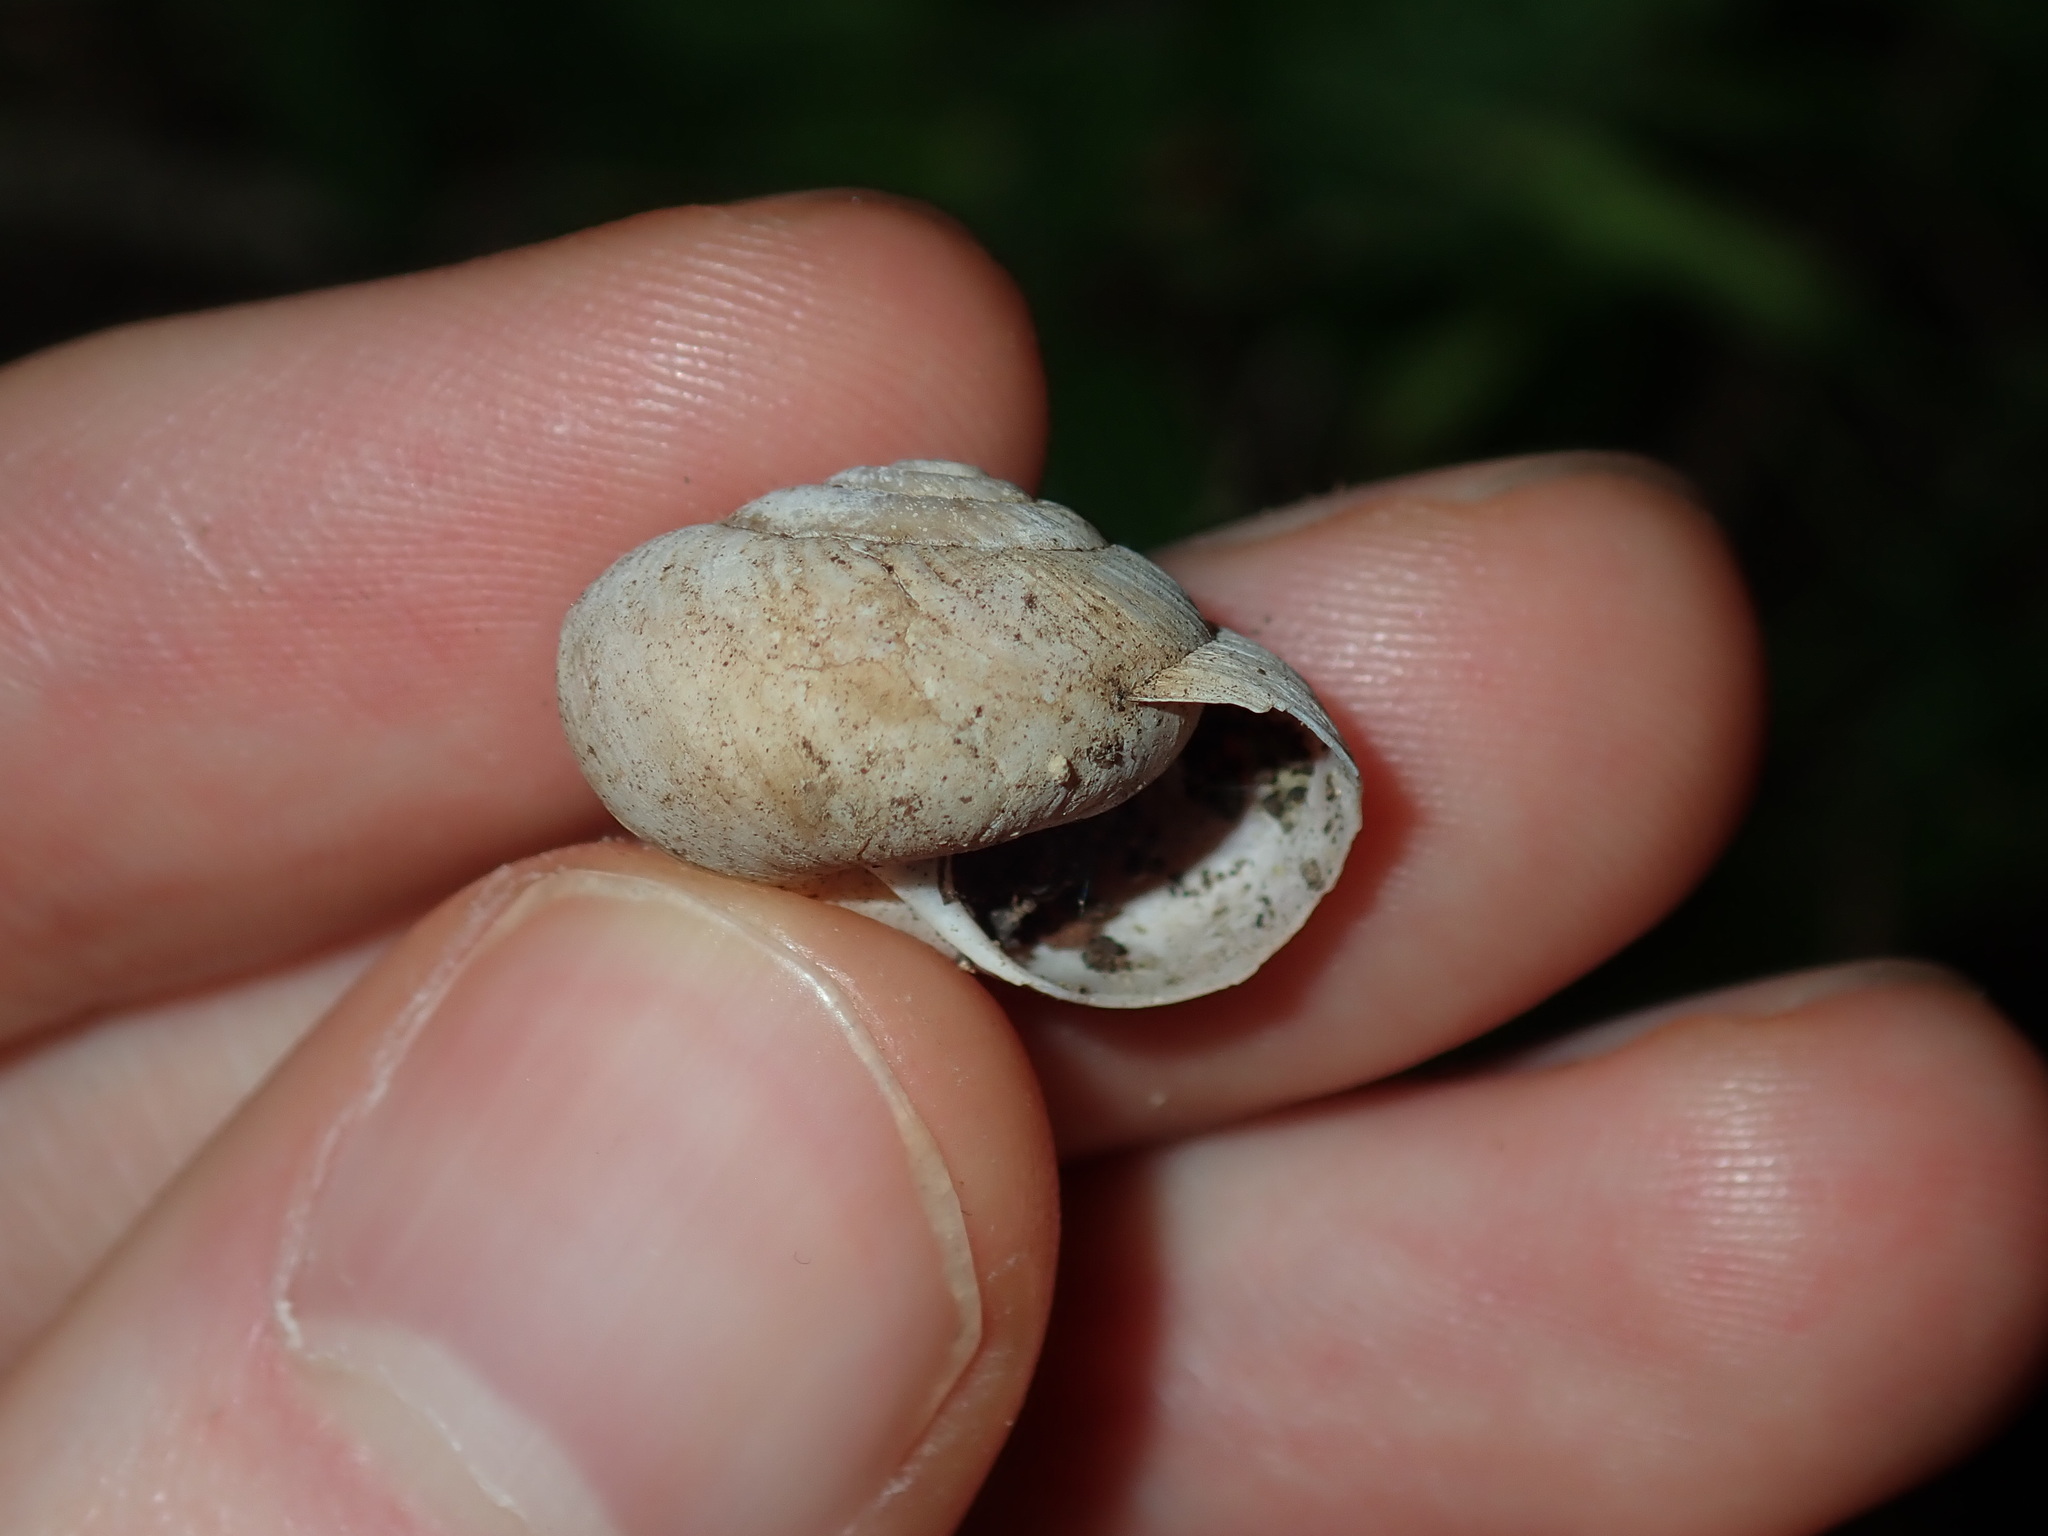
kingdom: Animalia
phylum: Mollusca
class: Gastropoda
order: Stylommatophora
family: Camaenidae
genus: Sauroconcha
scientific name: Sauroconcha sheai
